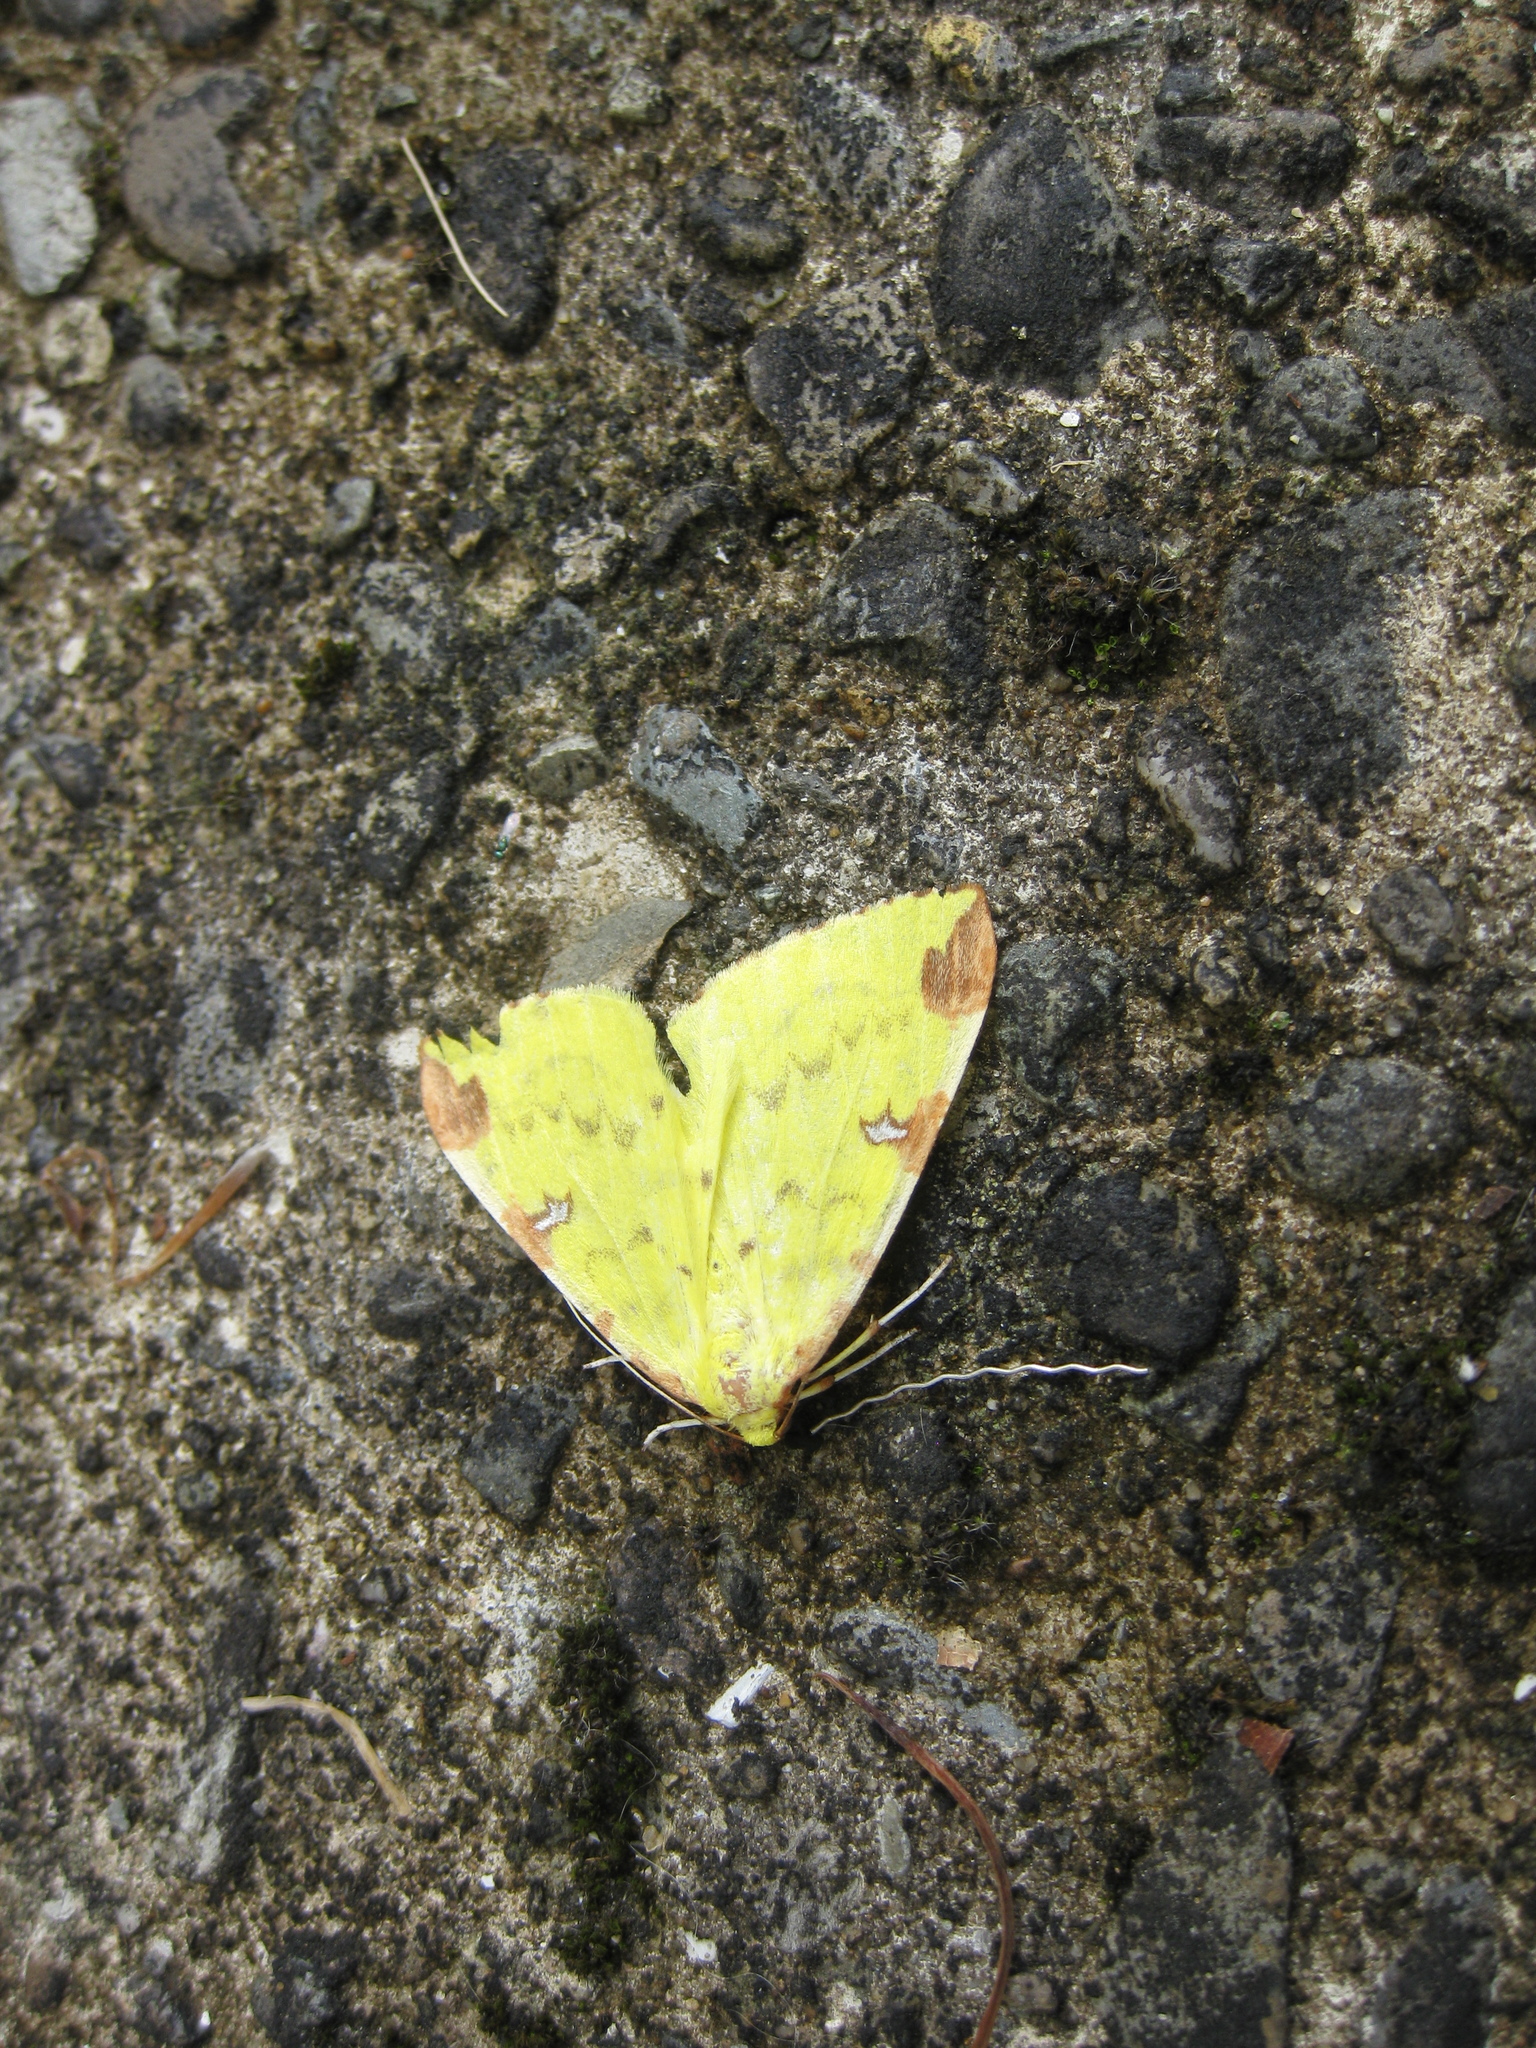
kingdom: Animalia
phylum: Arthropoda
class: Insecta
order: Lepidoptera
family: Geometridae
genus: Opisthograptis
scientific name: Opisthograptis luteolata
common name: Brimstone moth
